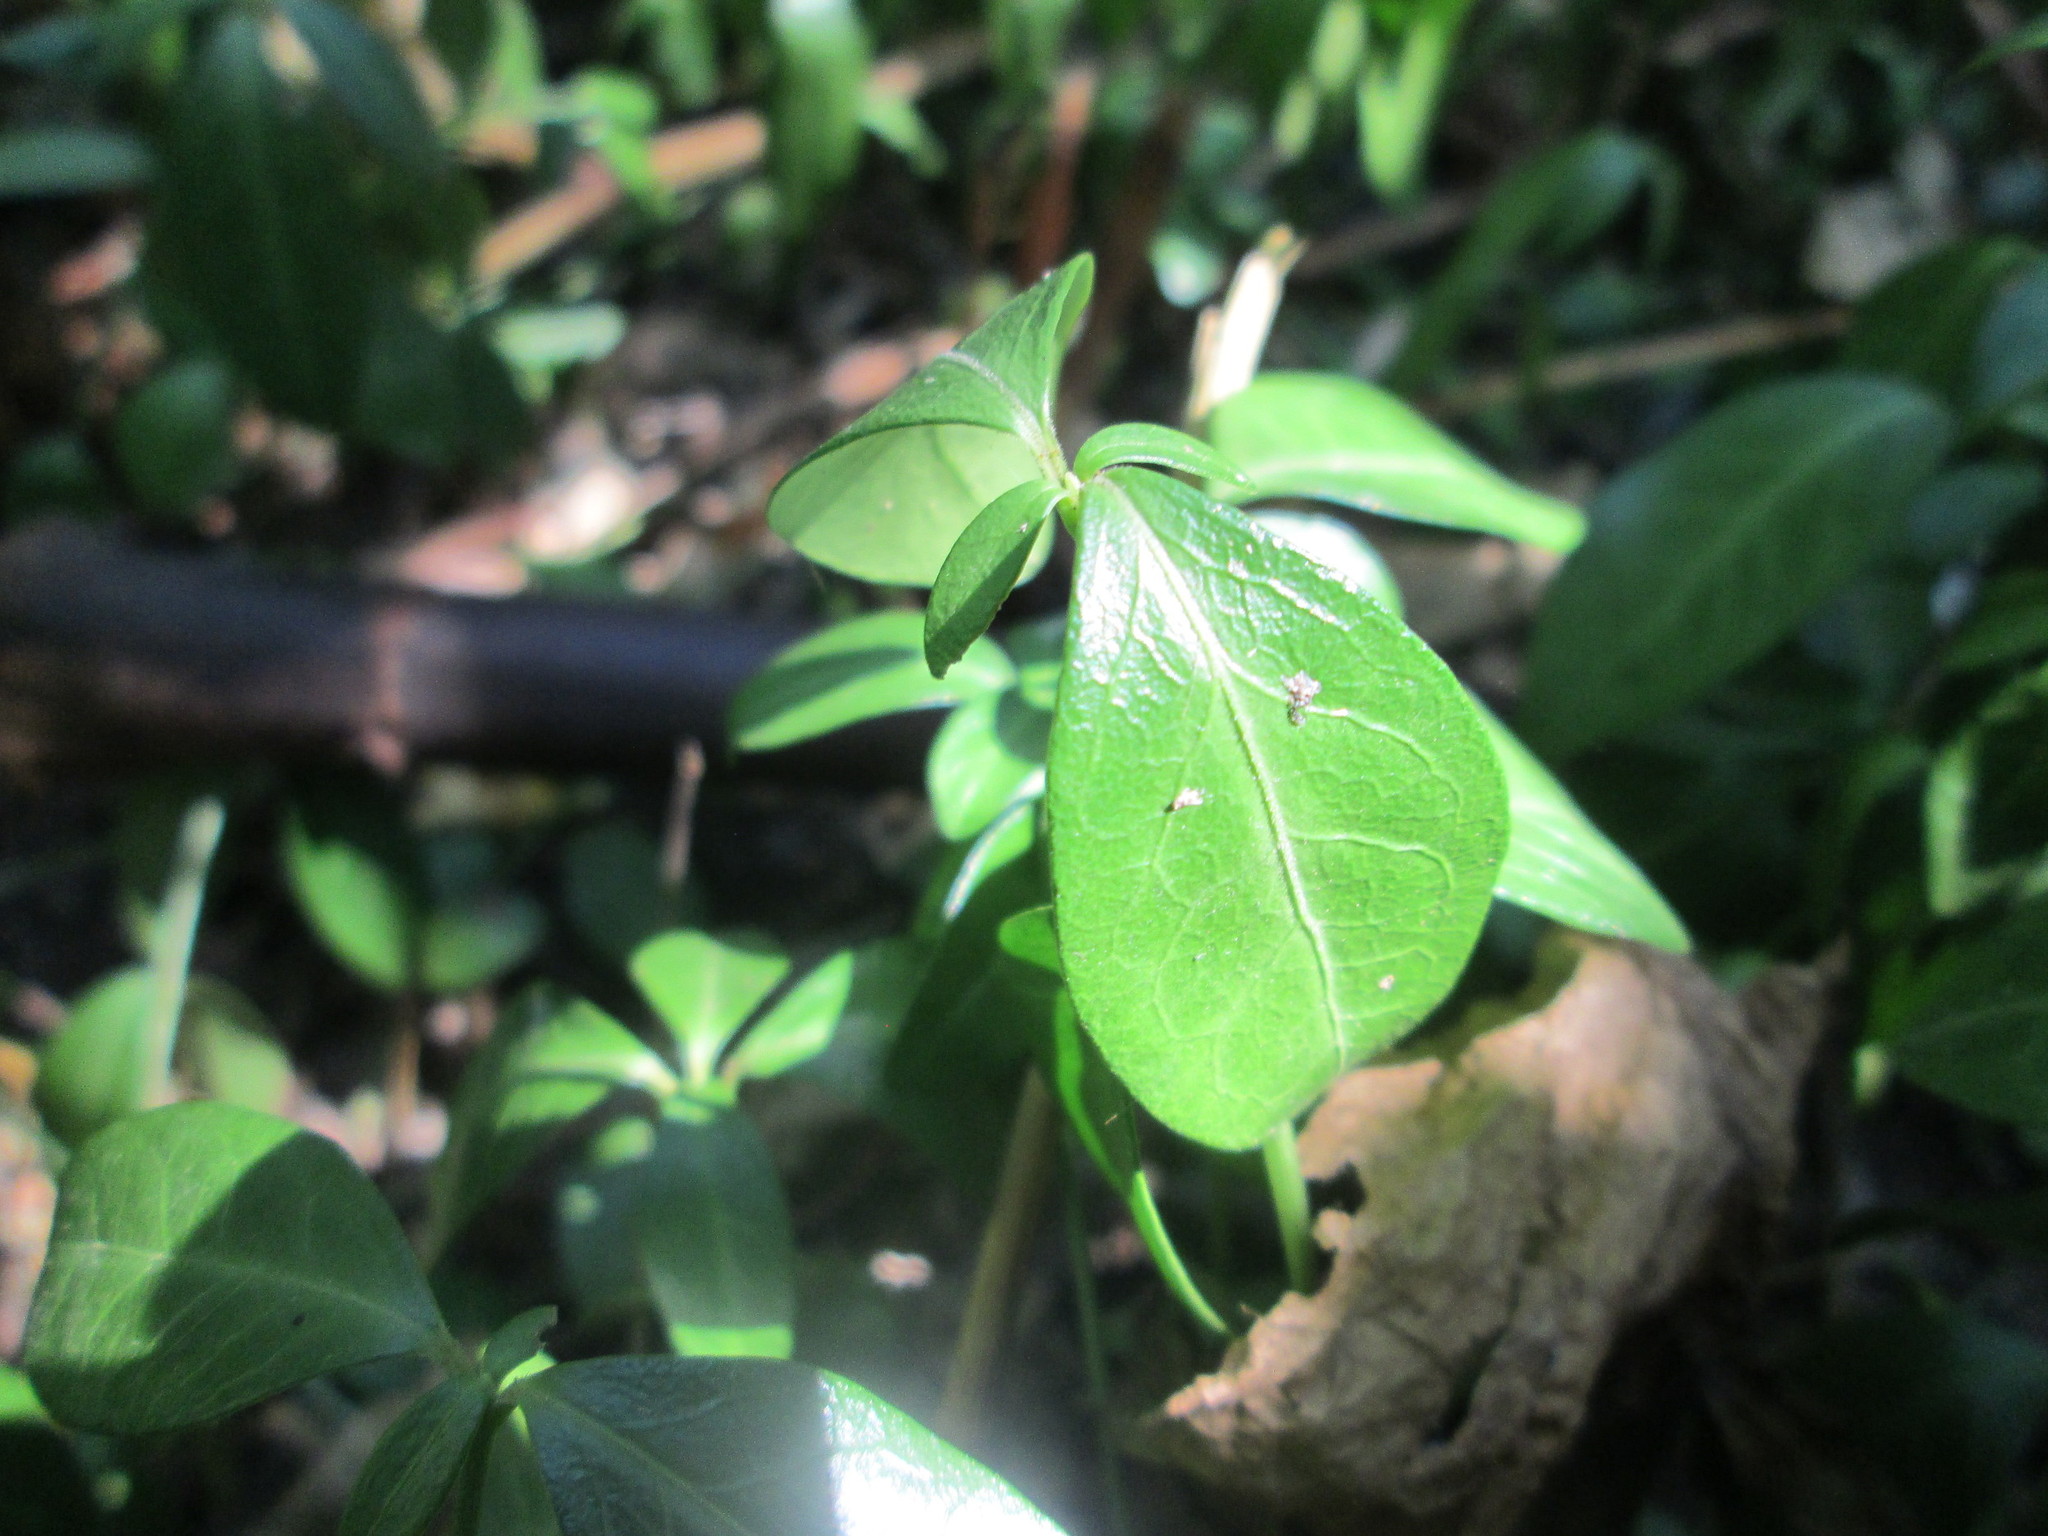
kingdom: Plantae
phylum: Tracheophyta
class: Magnoliopsida
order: Gentianales
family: Apocynaceae
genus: Vinca
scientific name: Vinca minor
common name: Lesser periwinkle
